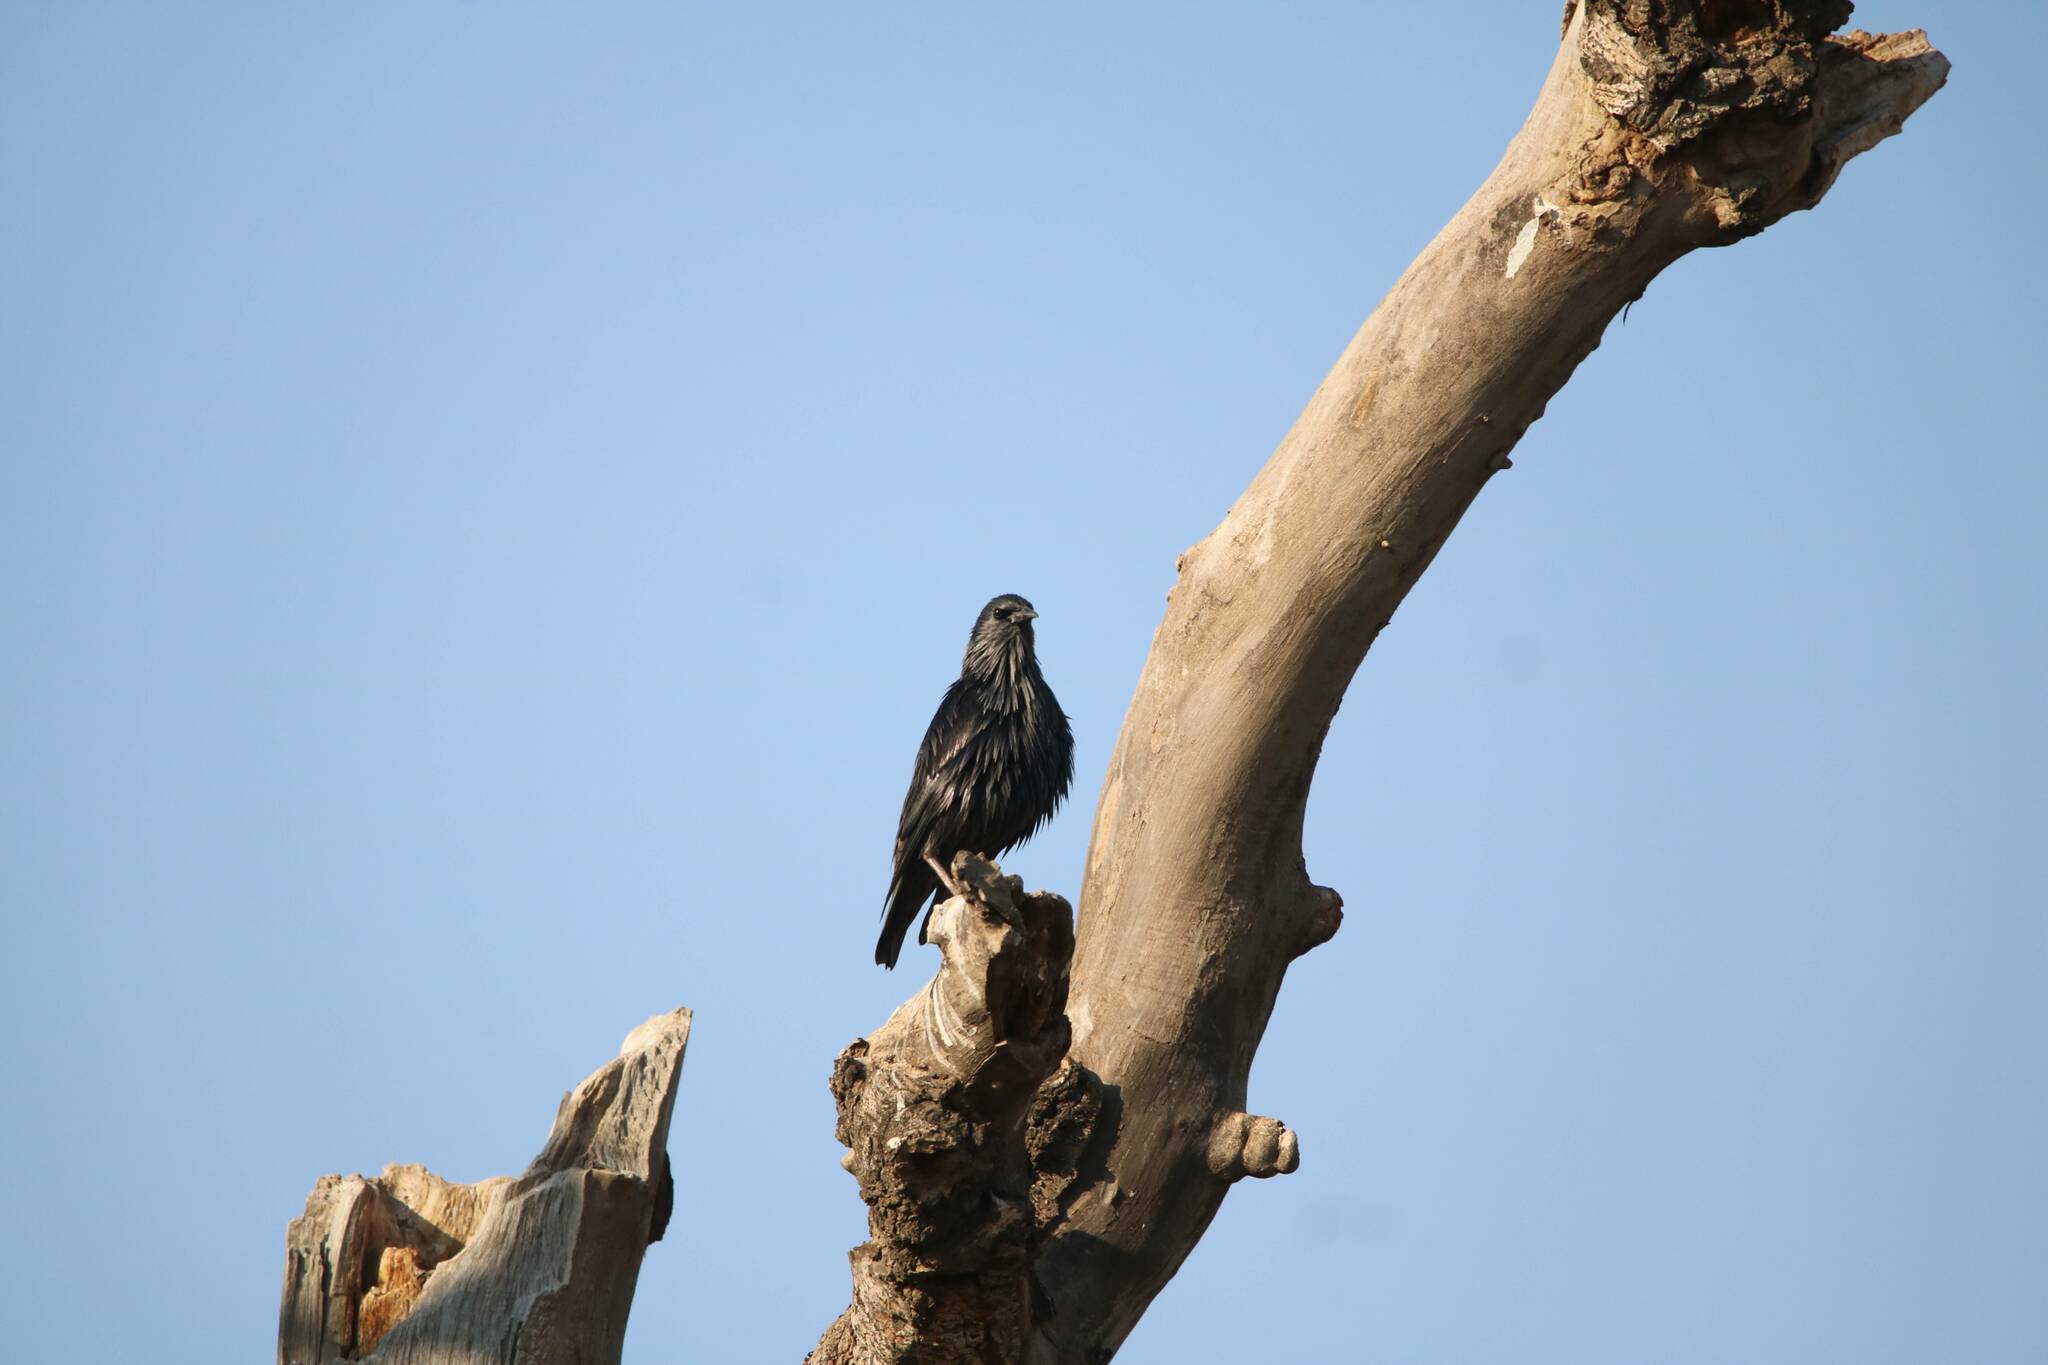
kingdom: Animalia
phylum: Chordata
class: Aves
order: Passeriformes
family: Sturnidae
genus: Sturnus
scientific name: Sturnus unicolor
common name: Spotless starling
